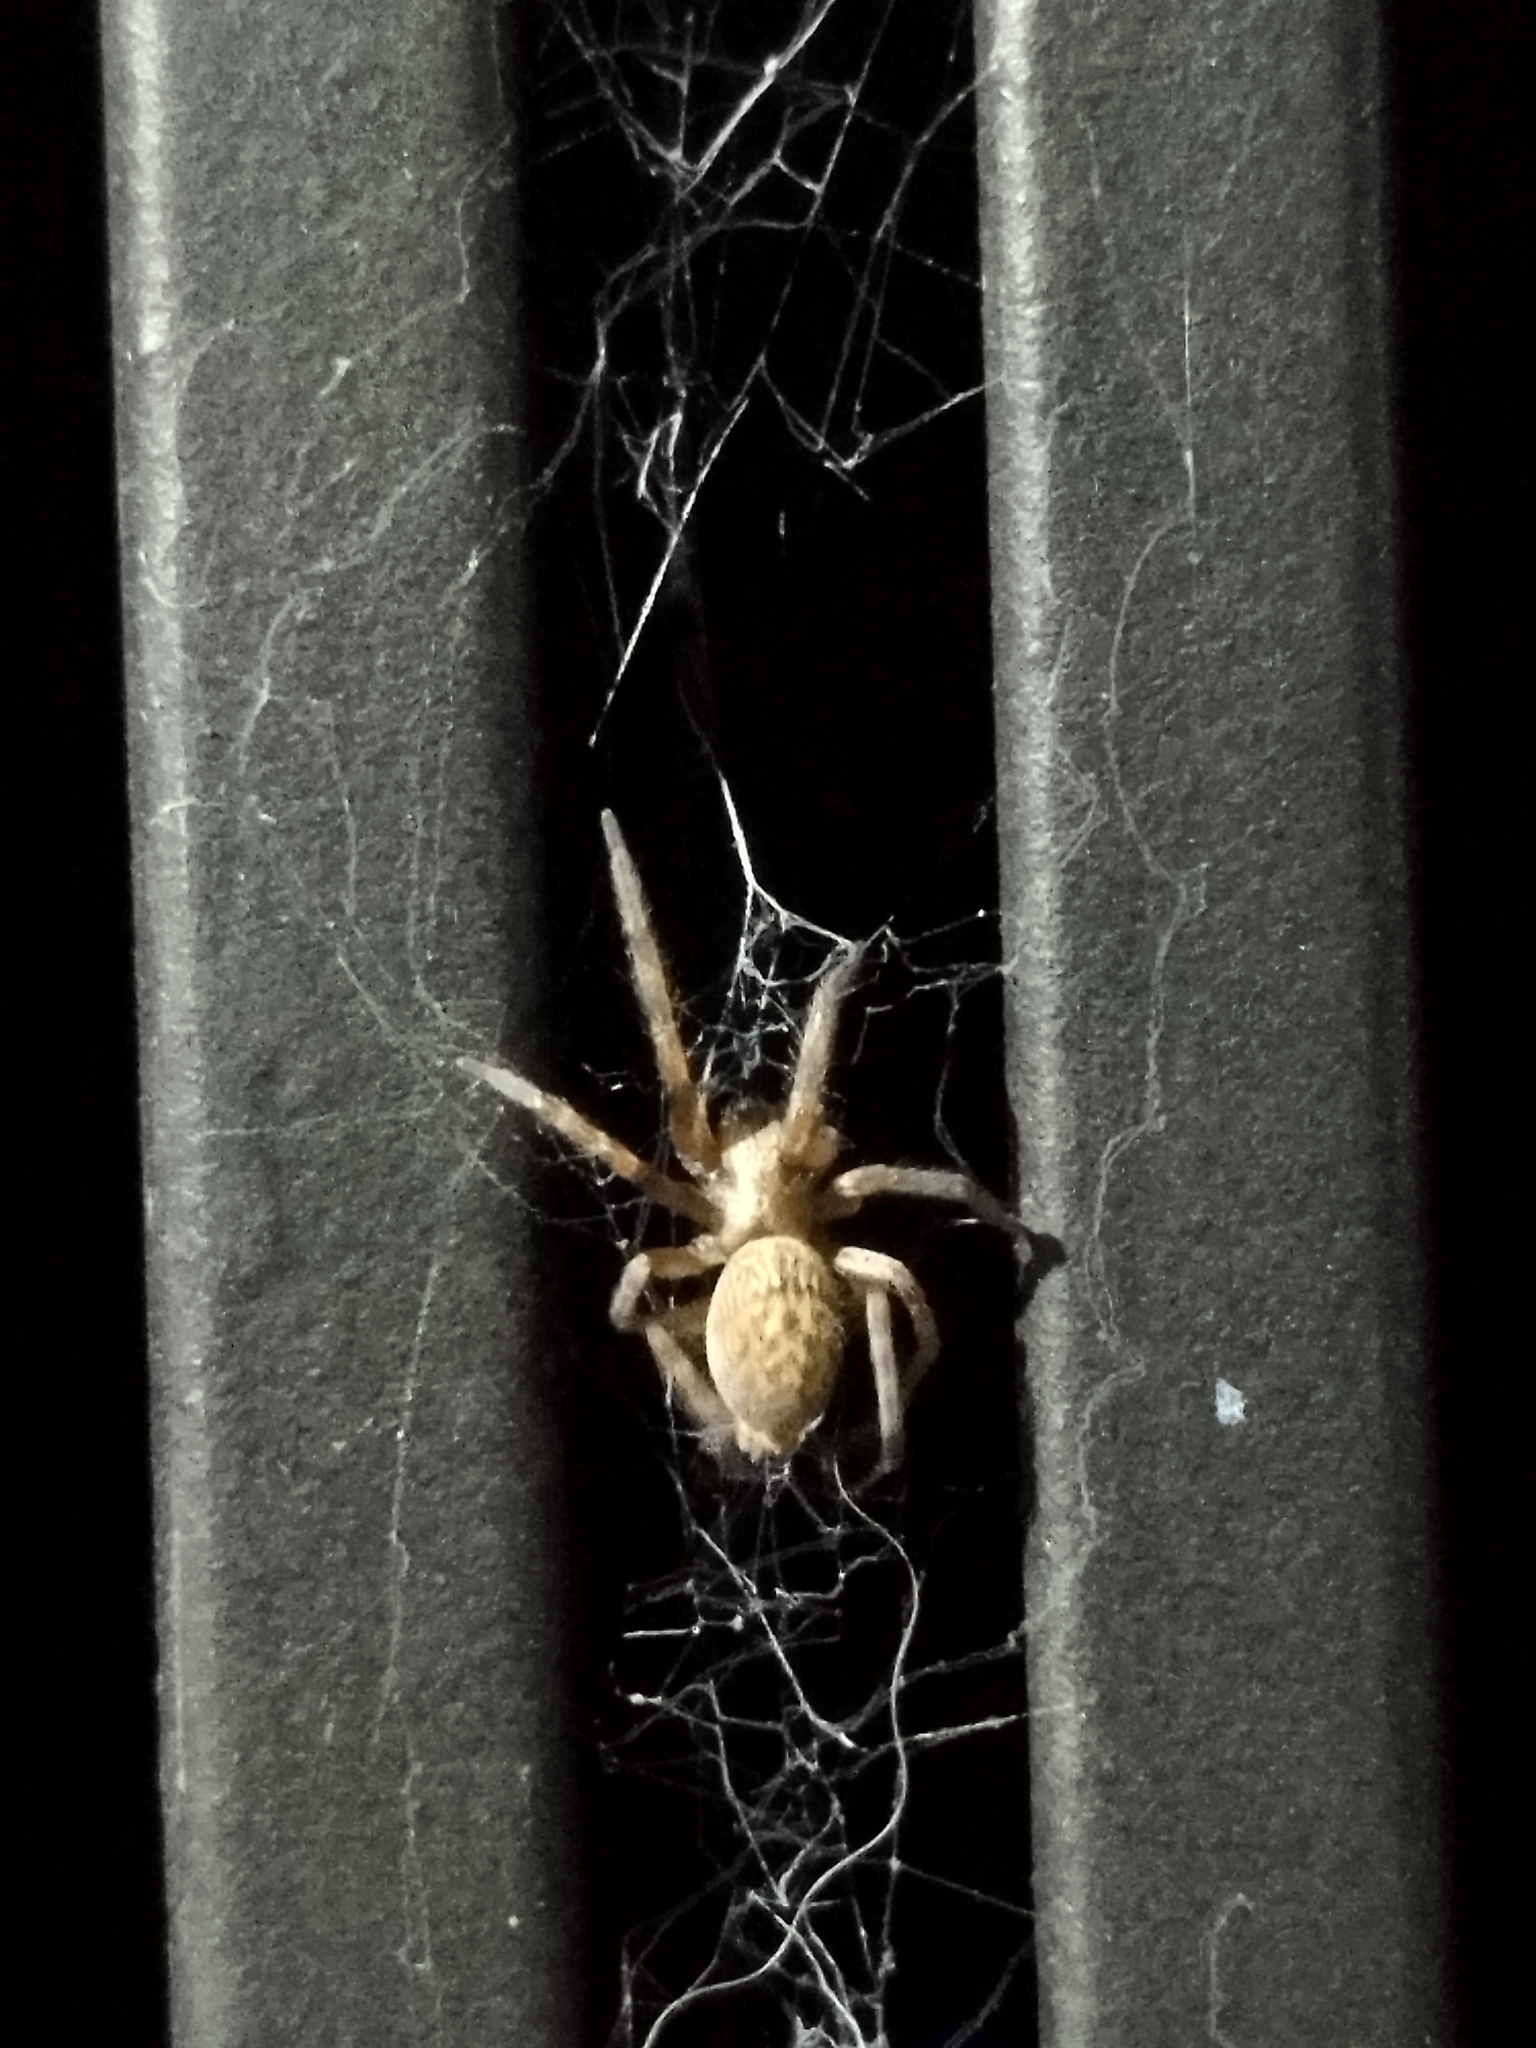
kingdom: Animalia
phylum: Arthropoda
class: Arachnida
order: Araneae
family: Desidae
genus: Badumna
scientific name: Badumna longinqua
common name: Gray house spider
